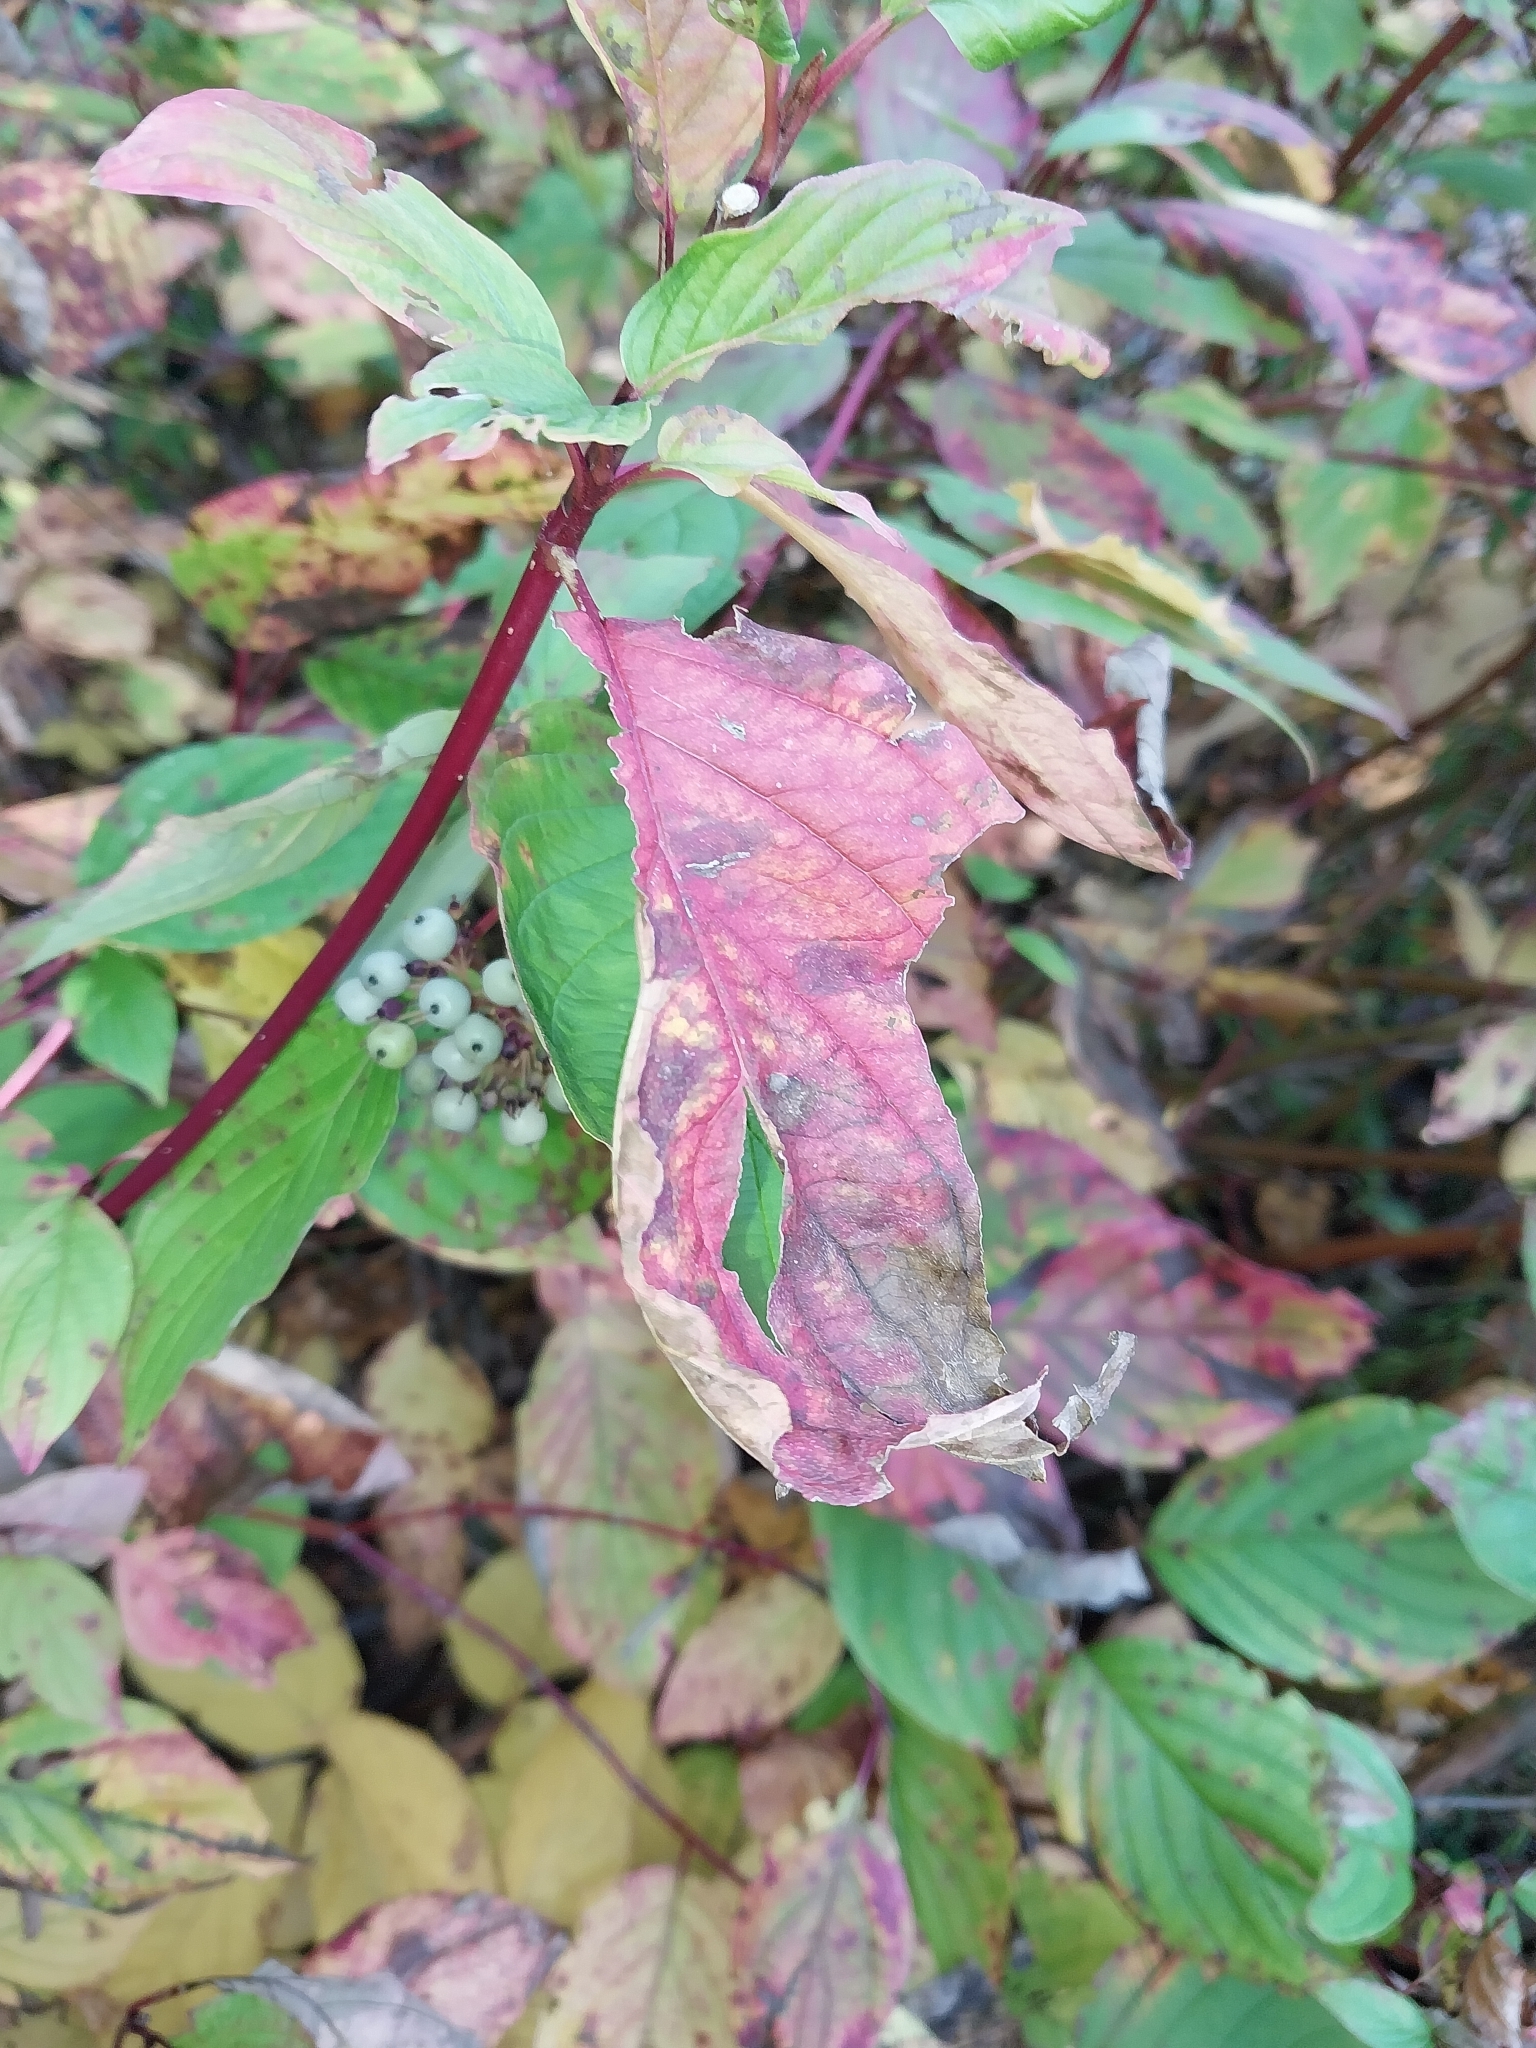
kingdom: Plantae
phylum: Tracheophyta
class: Magnoliopsida
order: Cornales
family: Cornaceae
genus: Cornus
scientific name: Cornus sericea
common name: Red-osier dogwood
